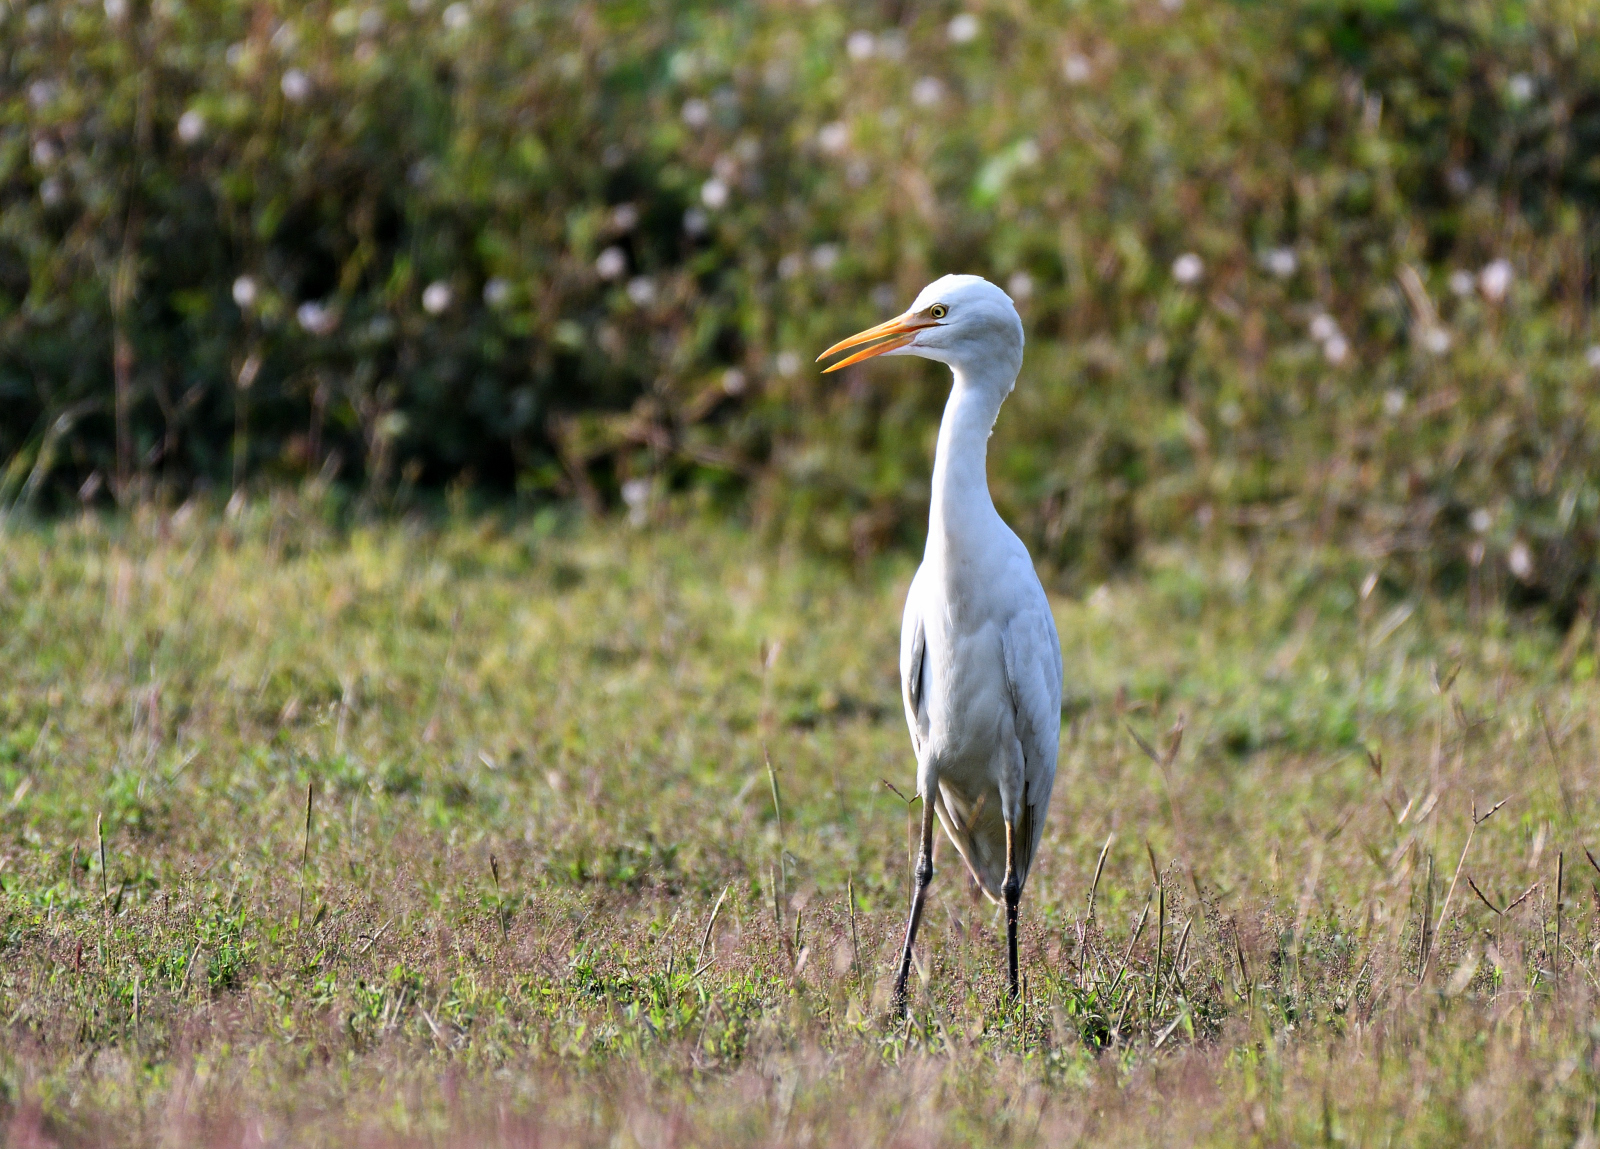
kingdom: Animalia
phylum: Chordata
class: Aves
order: Pelecaniformes
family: Ardeidae
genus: Bubulcus
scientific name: Bubulcus coromandus
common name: Eastern cattle egret
